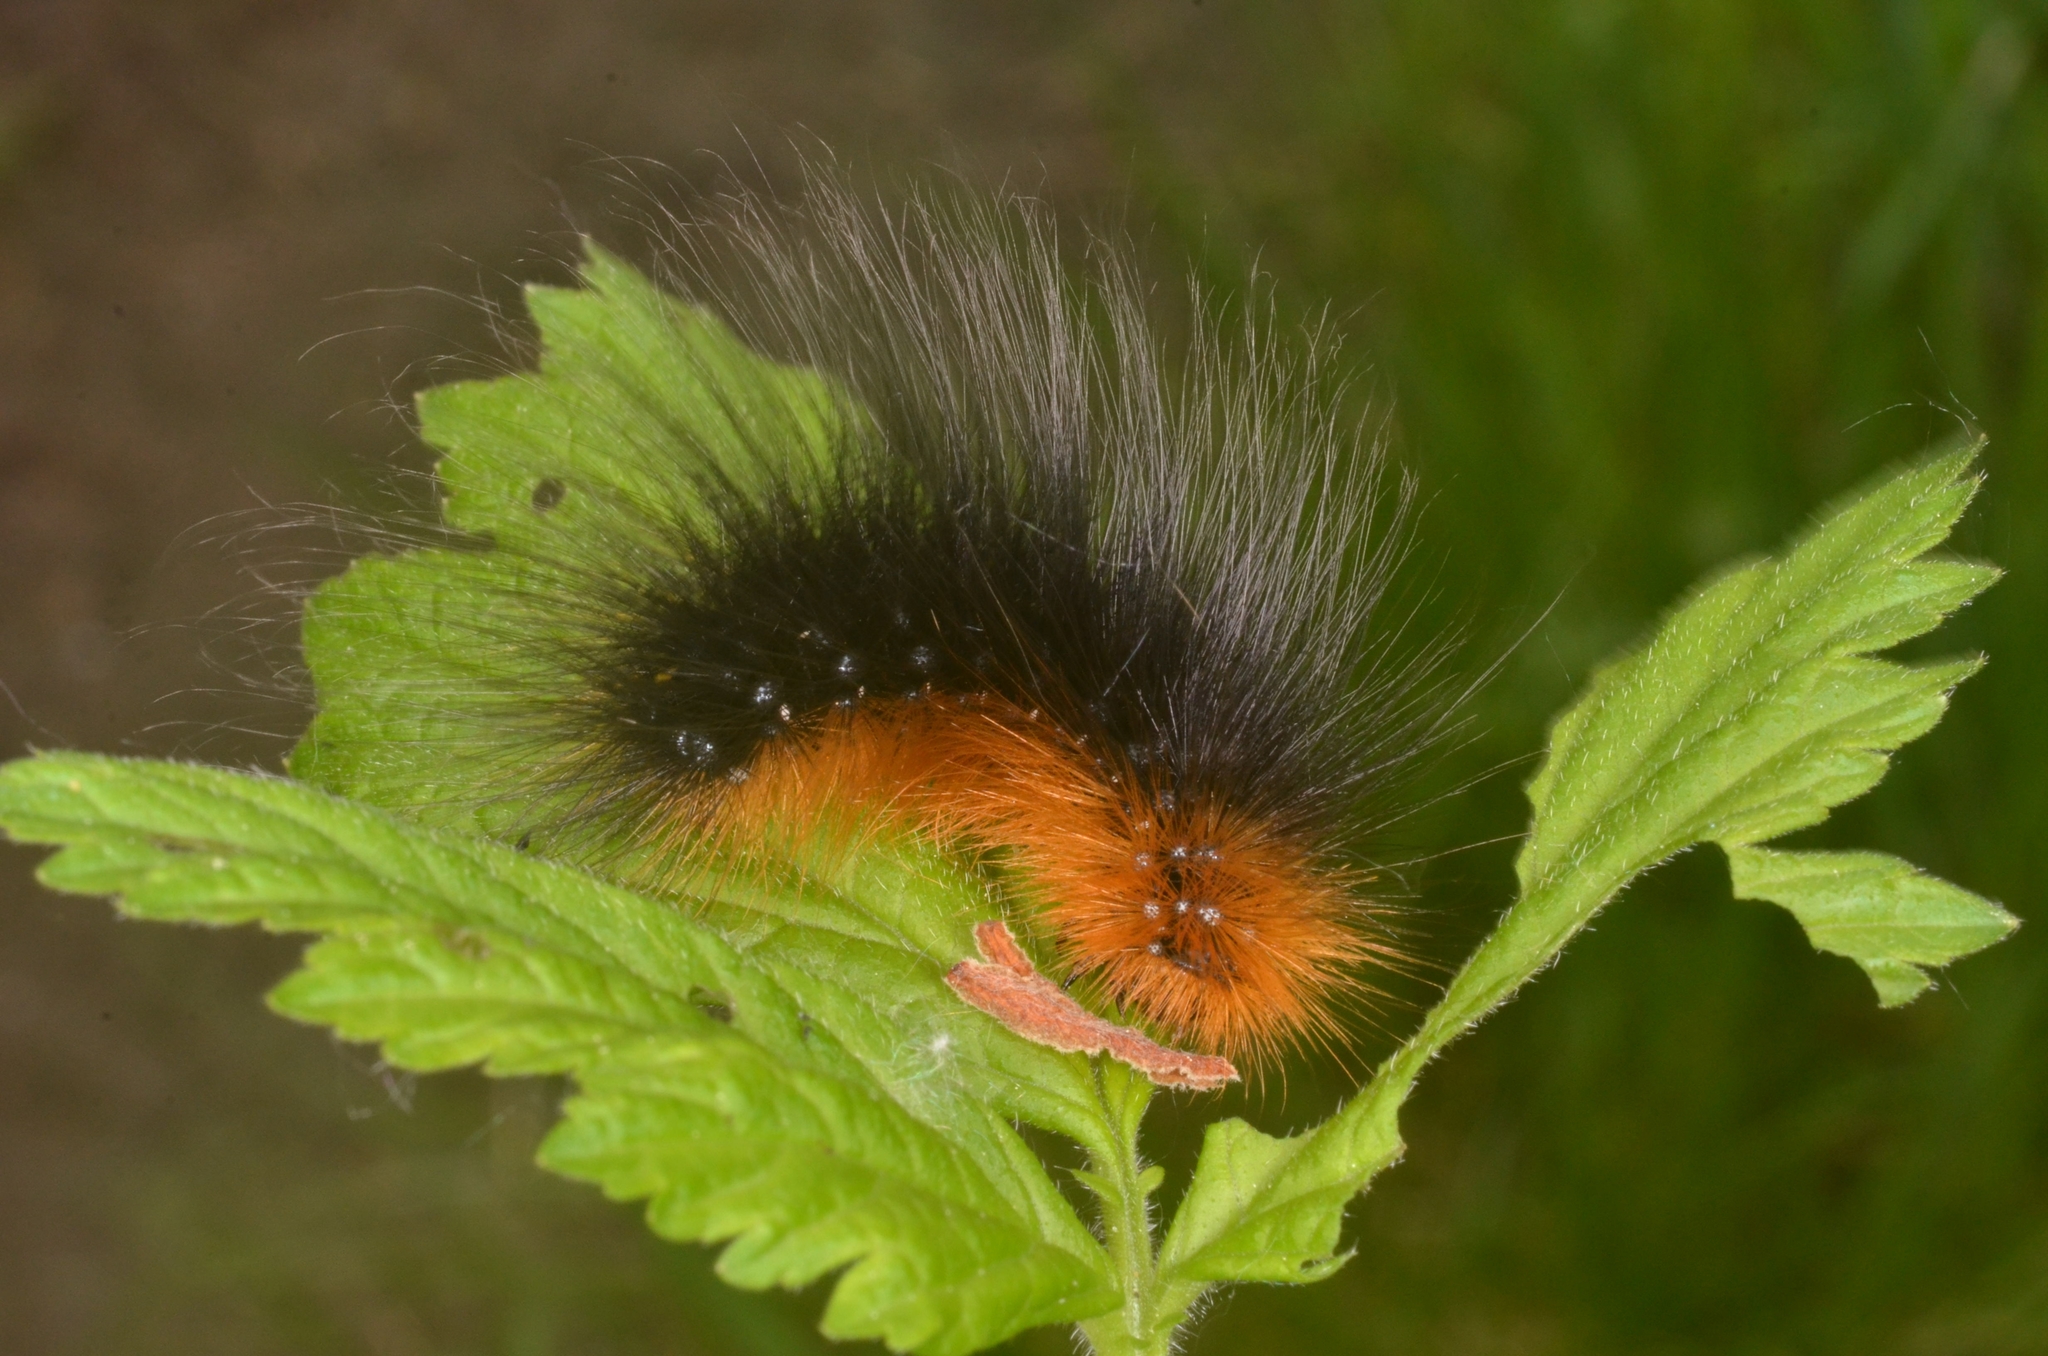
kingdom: Animalia
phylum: Arthropoda
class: Insecta
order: Lepidoptera
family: Erebidae
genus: Arctia
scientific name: Arctia caja
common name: Garden tiger
